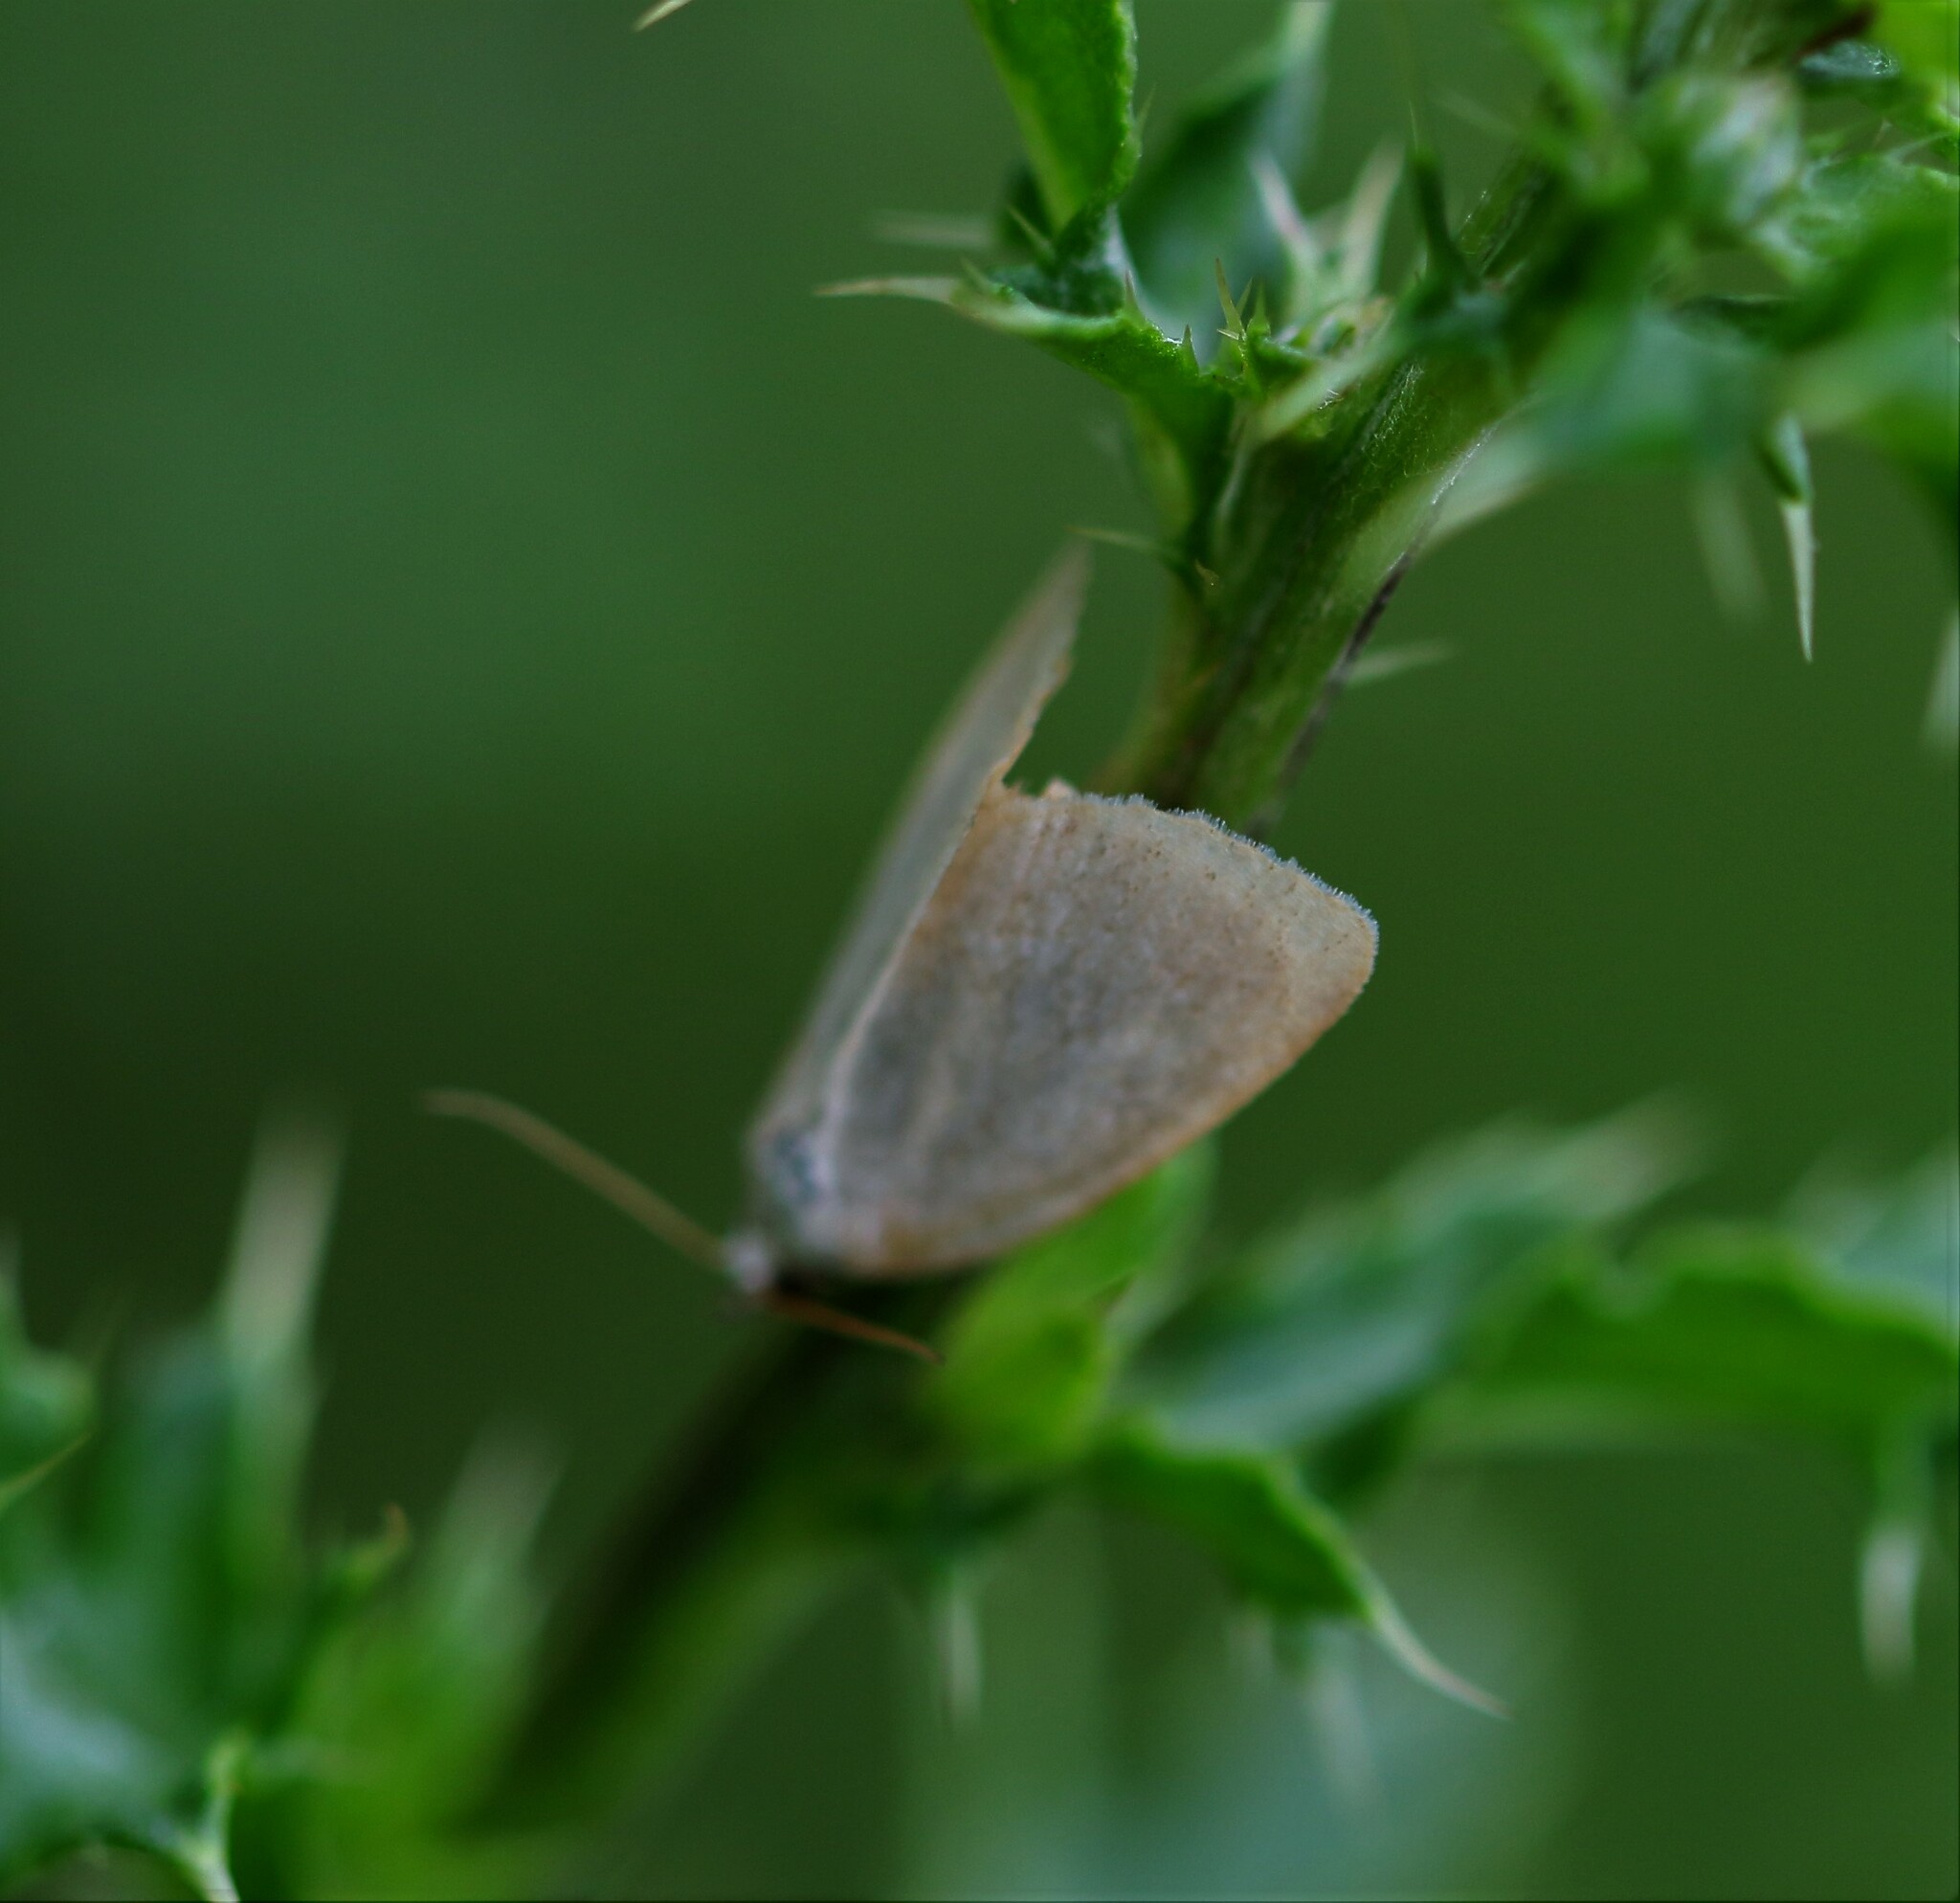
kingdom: Animalia
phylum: Arthropoda
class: Insecta
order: Lepidoptera
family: Noctuidae
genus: Protodeltote
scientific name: Protodeltote albidula
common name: Pale glyph
